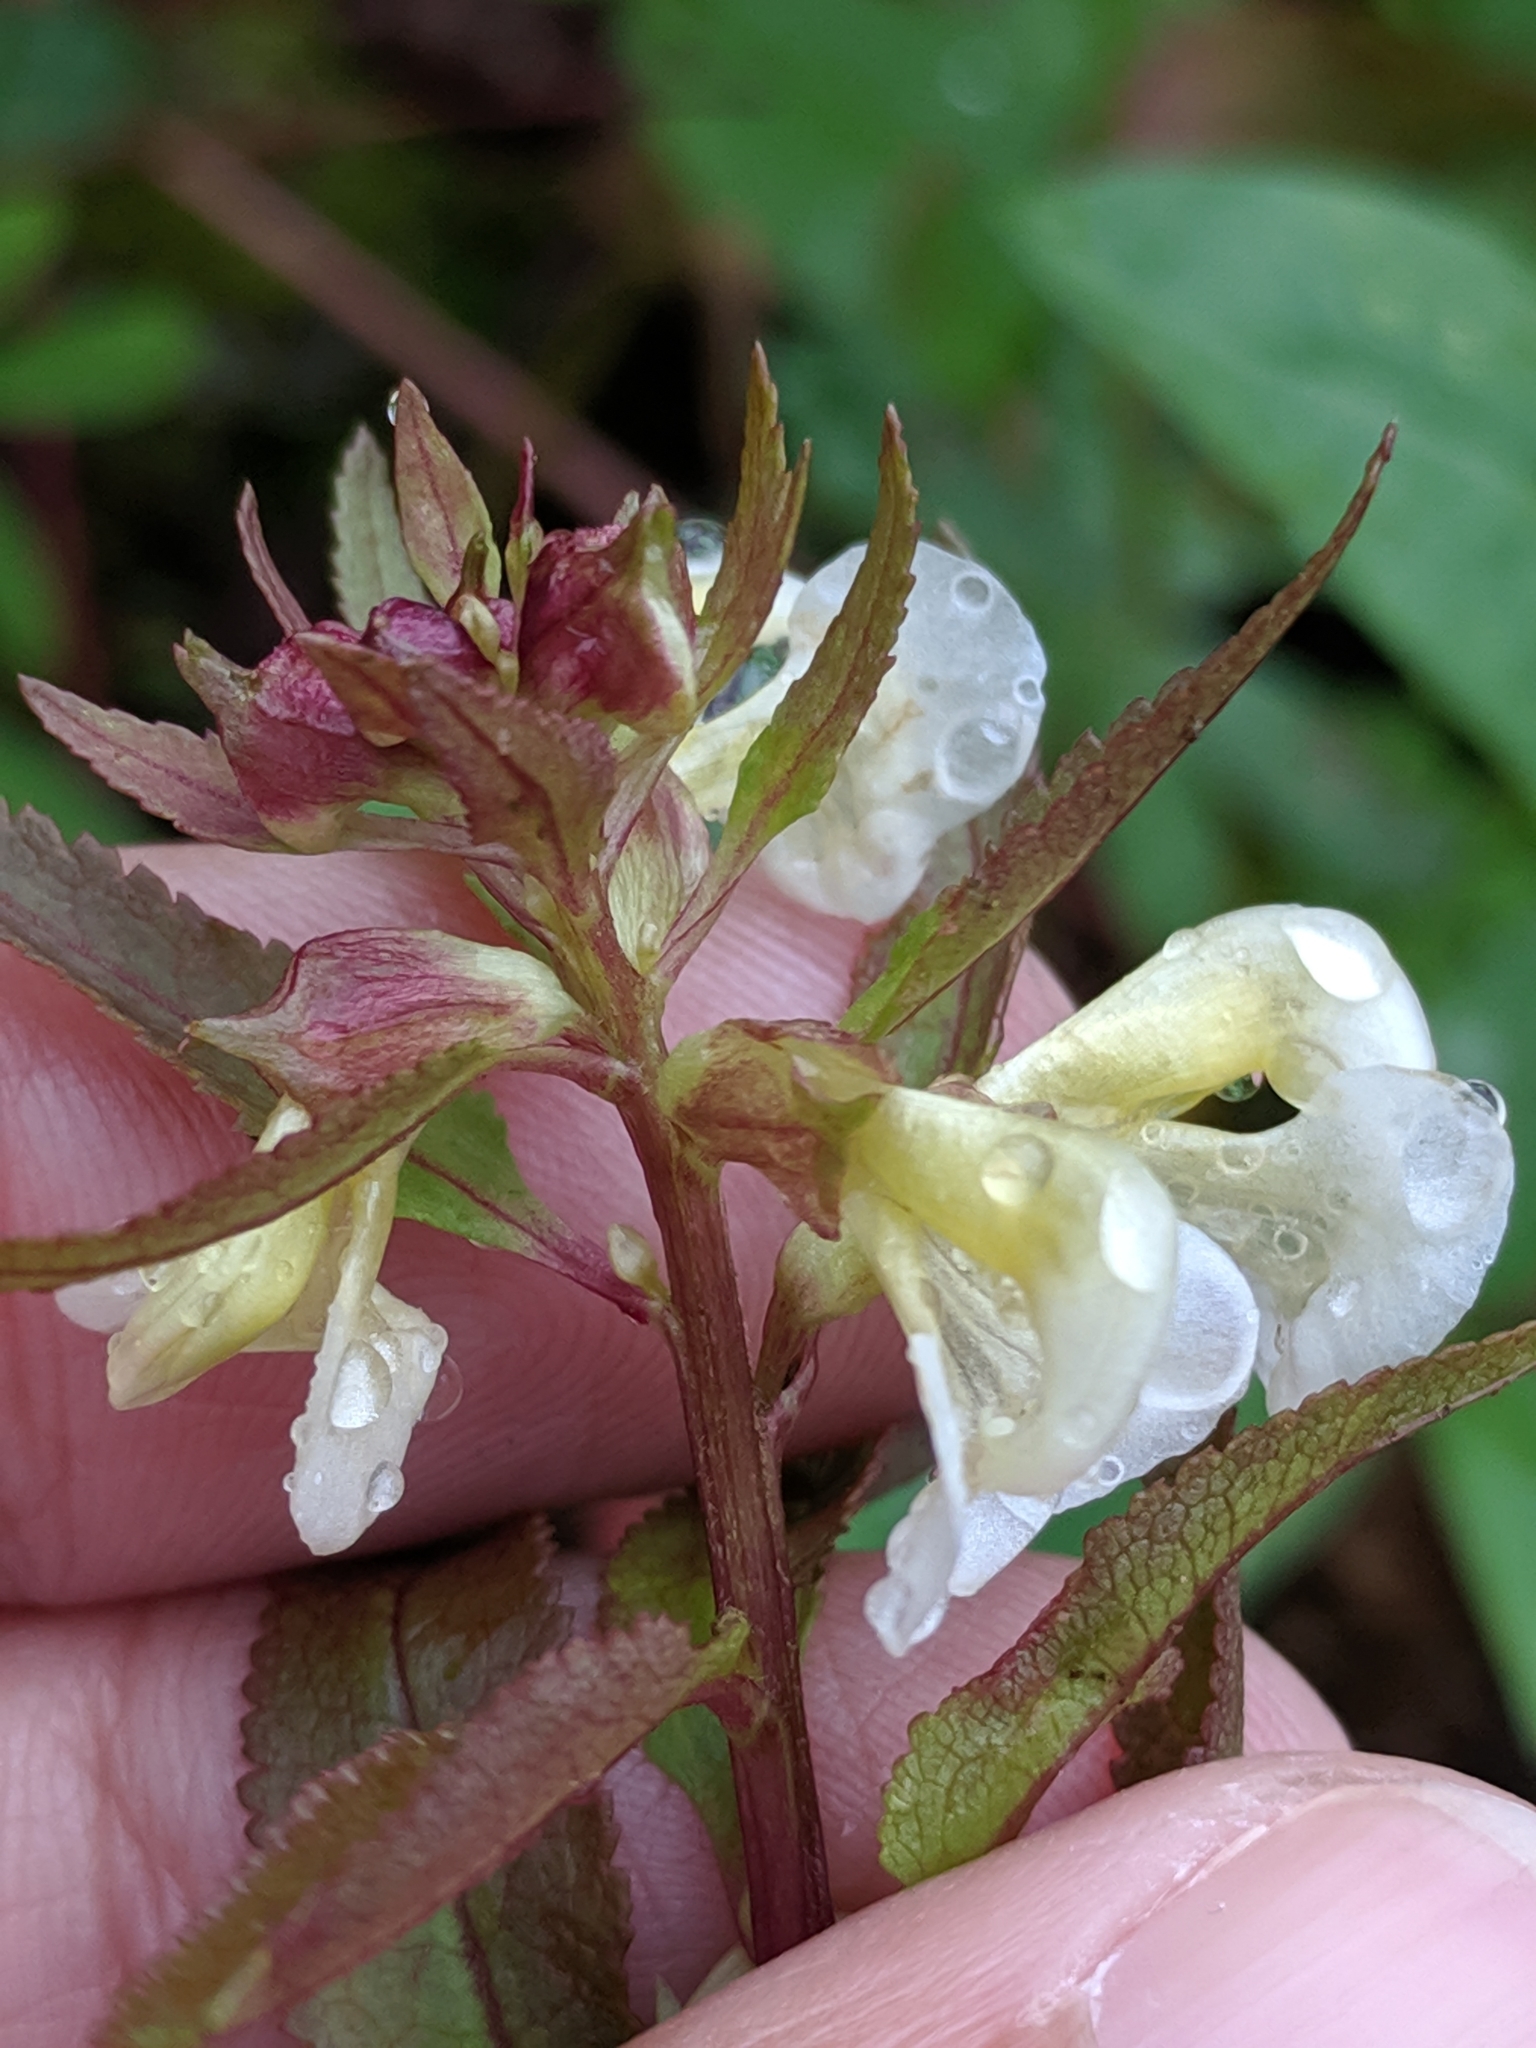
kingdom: Plantae
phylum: Tracheophyta
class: Magnoliopsida
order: Lamiales
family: Orobanchaceae
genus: Pedicularis
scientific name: Pedicularis racemosa
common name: Leafy lousewort
